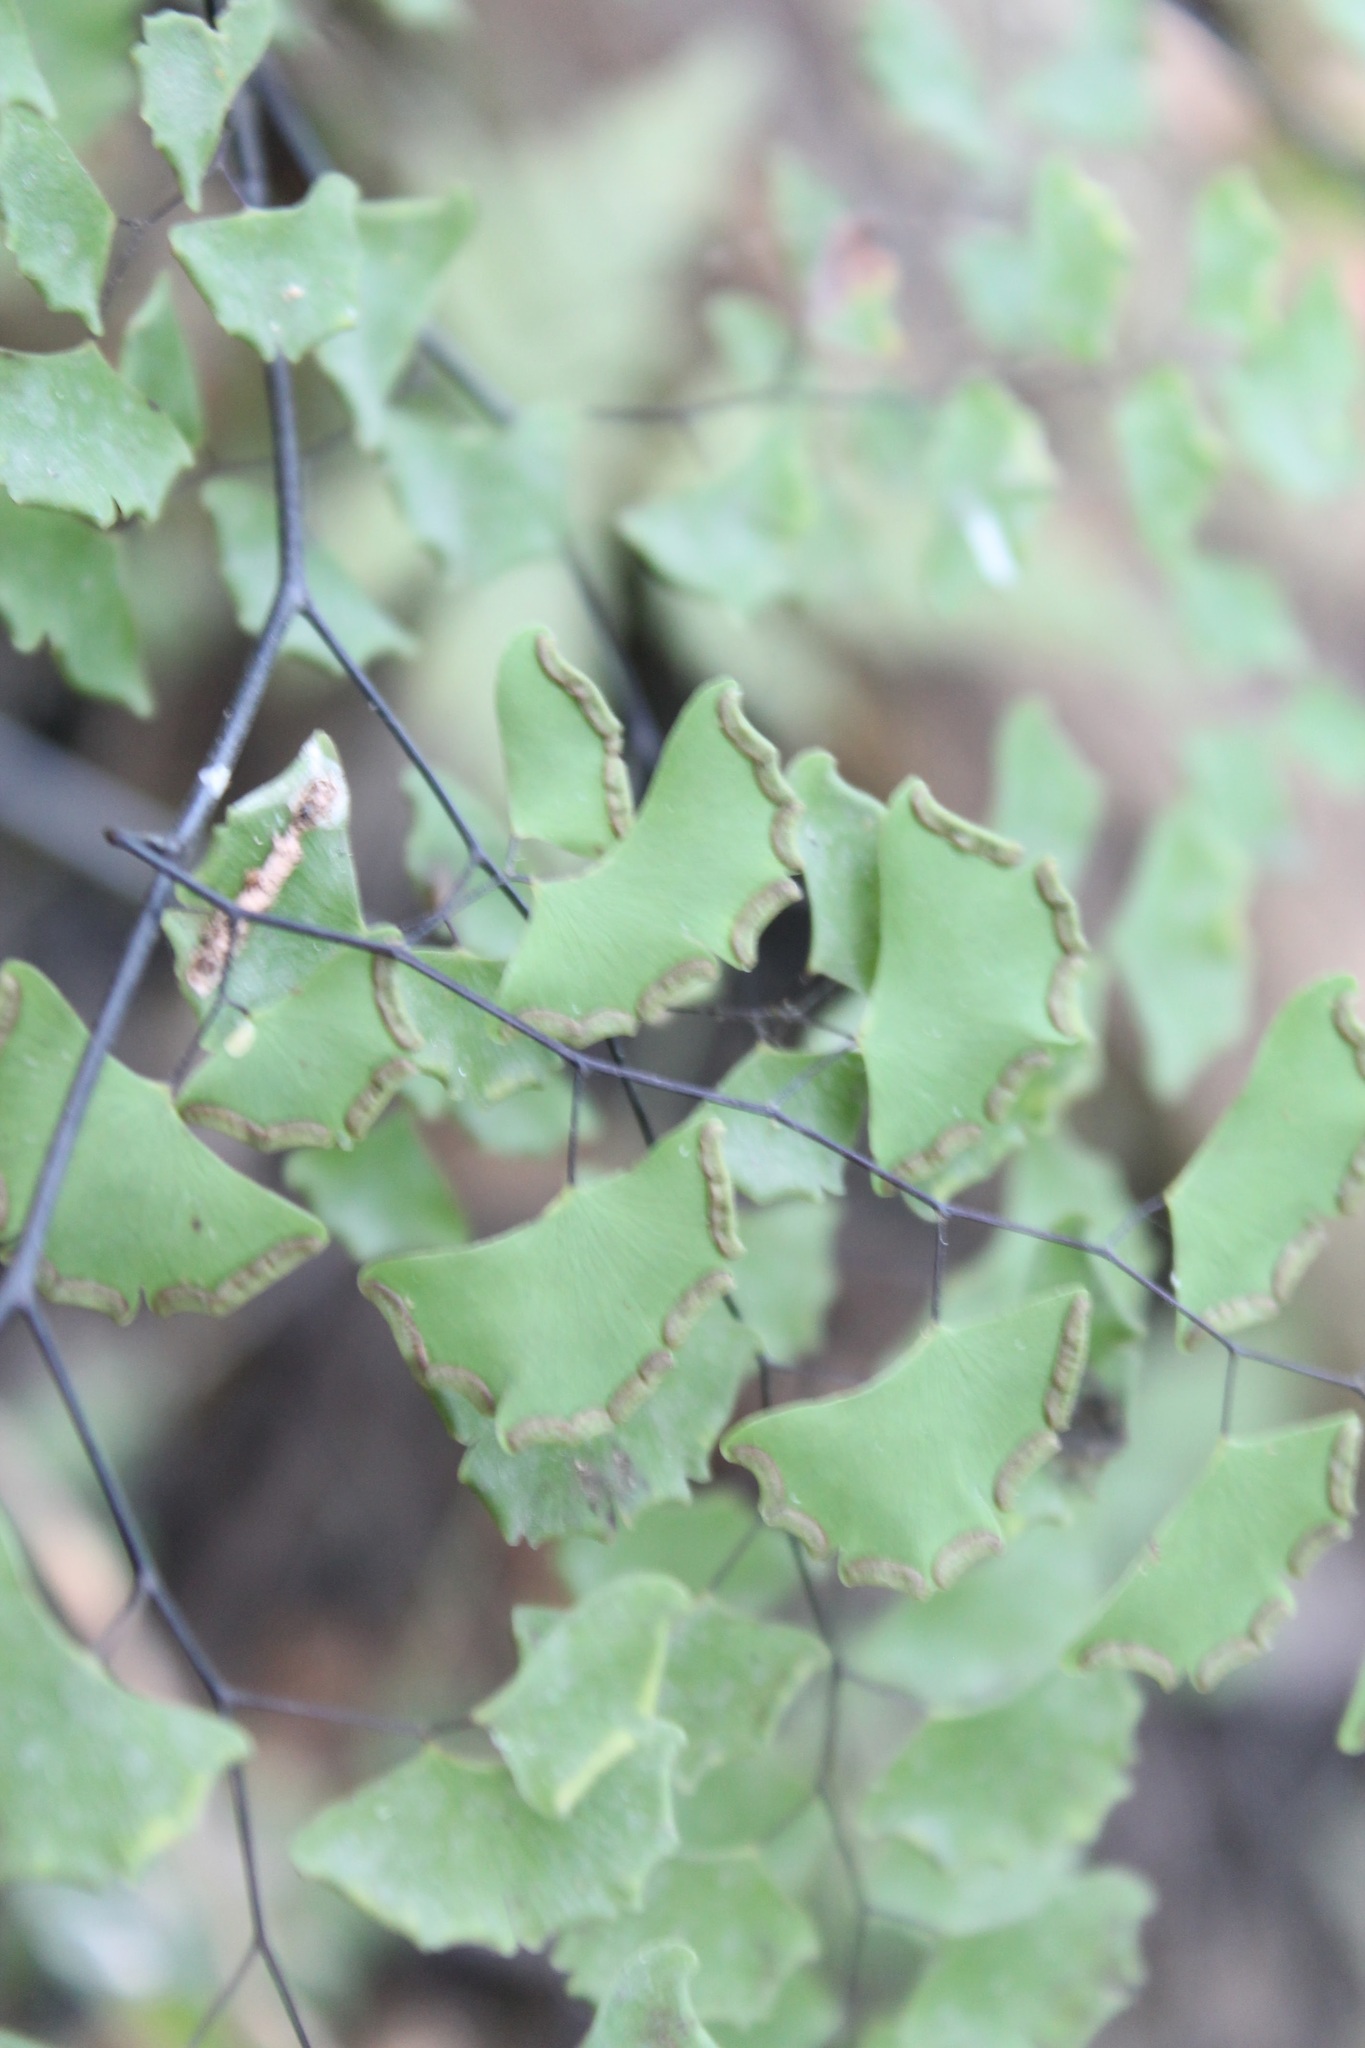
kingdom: Plantae
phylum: Tracheophyta
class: Polypodiopsida
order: Polypodiales
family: Pteridaceae
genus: Adiantum
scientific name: Adiantum braunii
